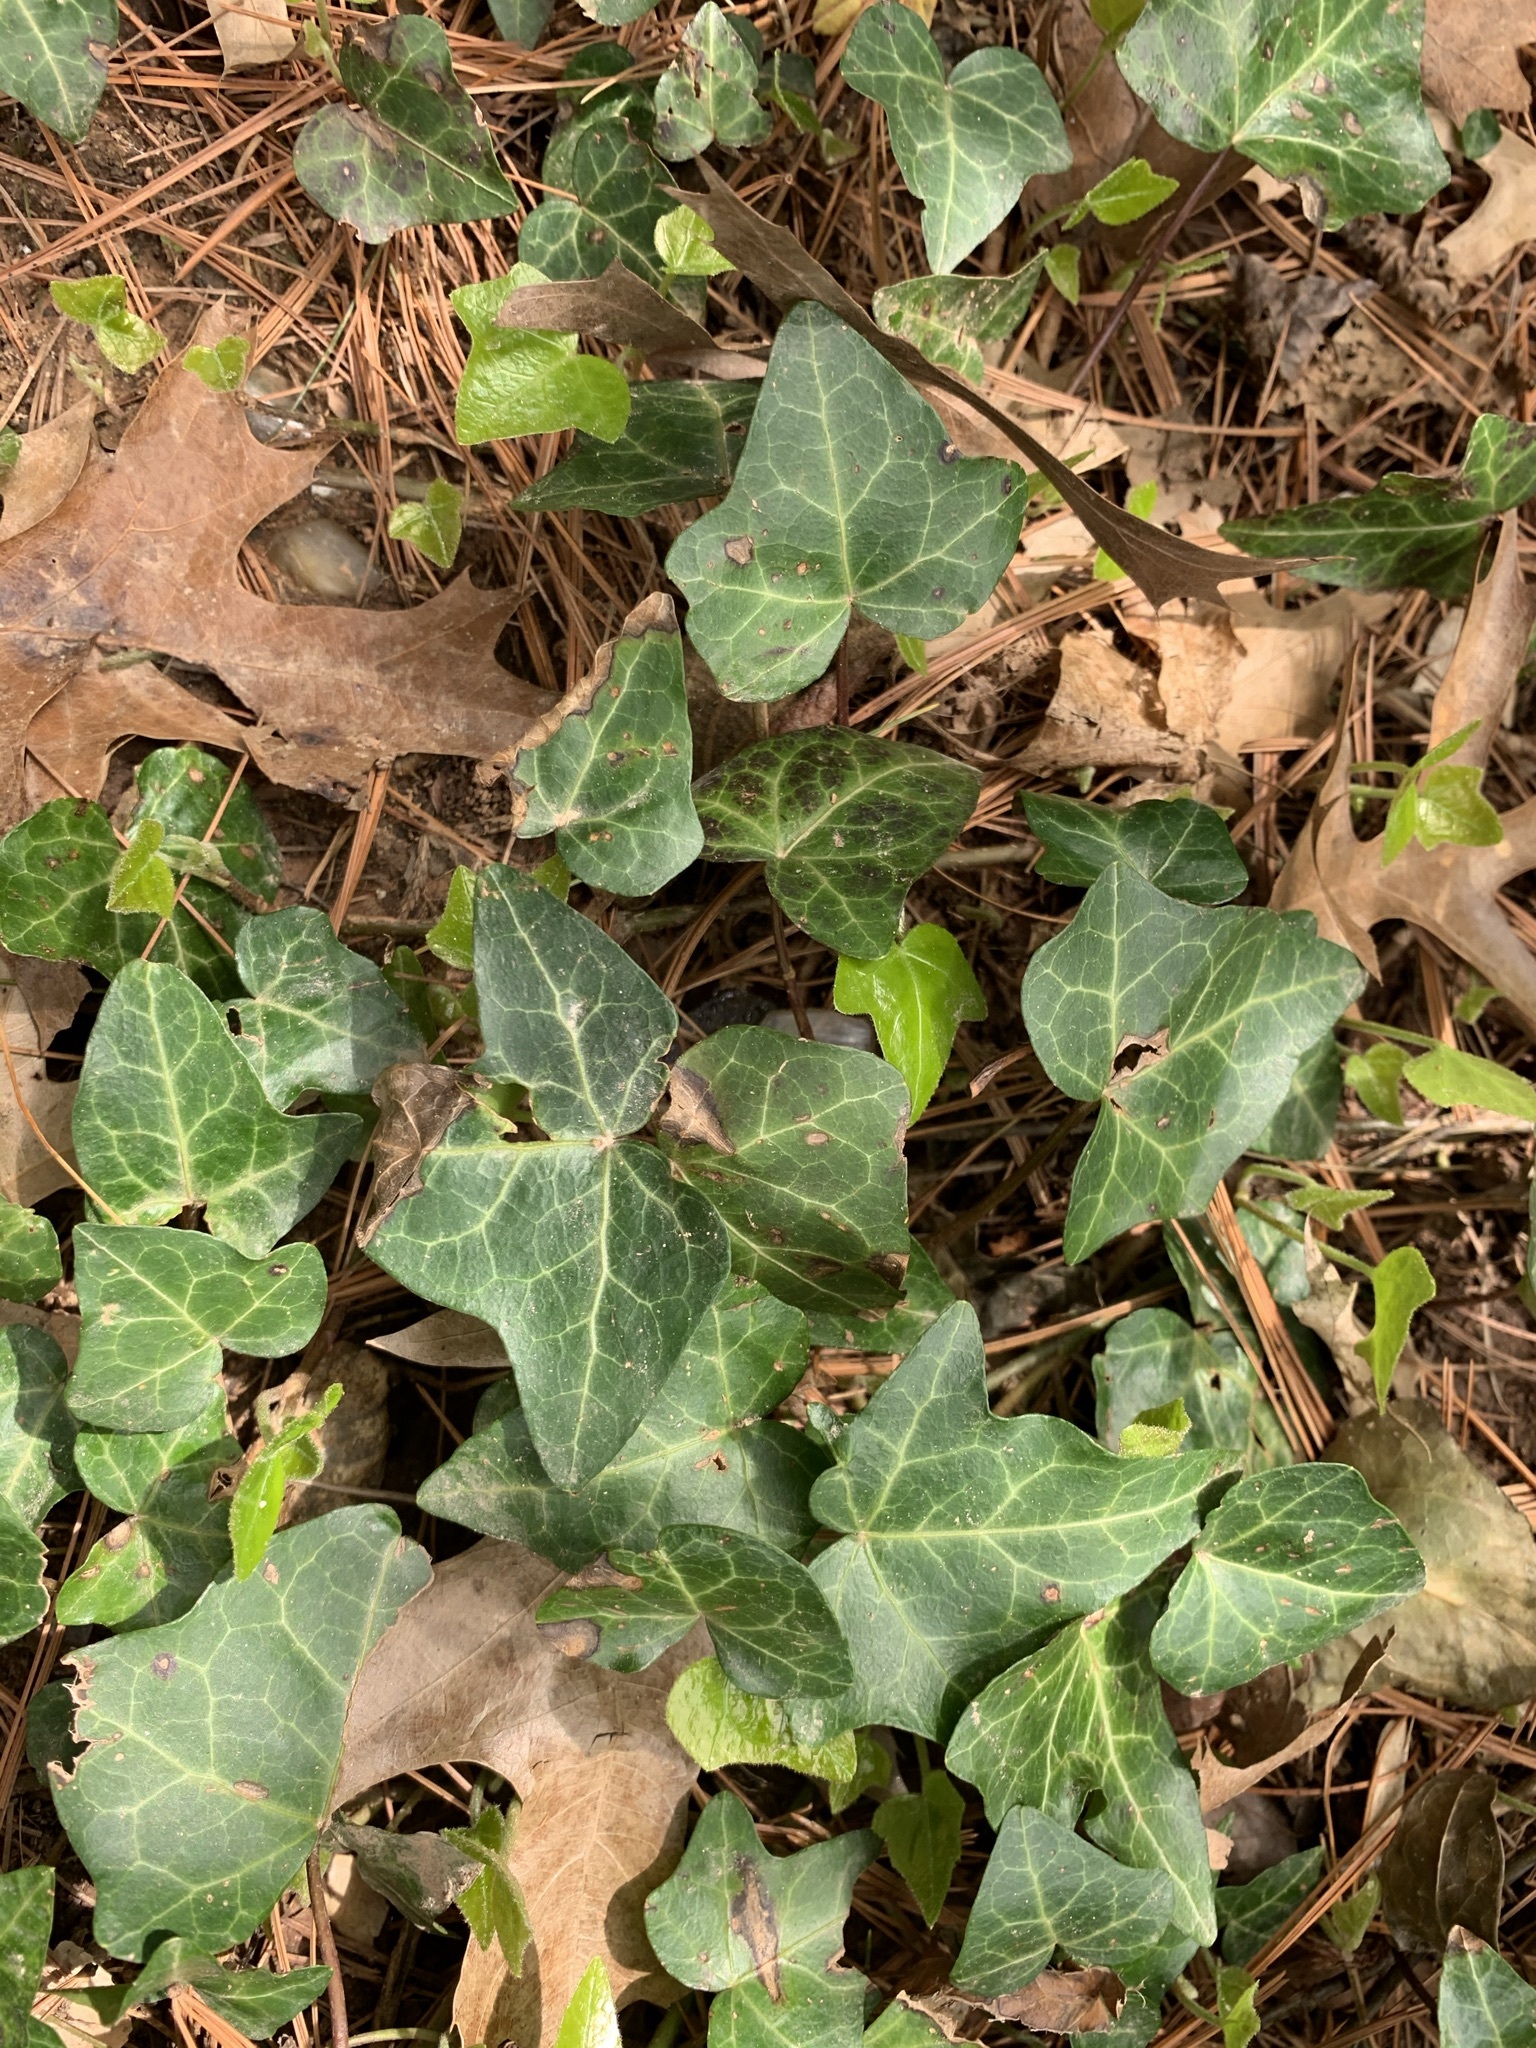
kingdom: Plantae
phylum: Tracheophyta
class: Magnoliopsida
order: Apiales
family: Araliaceae
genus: Hedera
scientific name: Hedera helix
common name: Ivy
